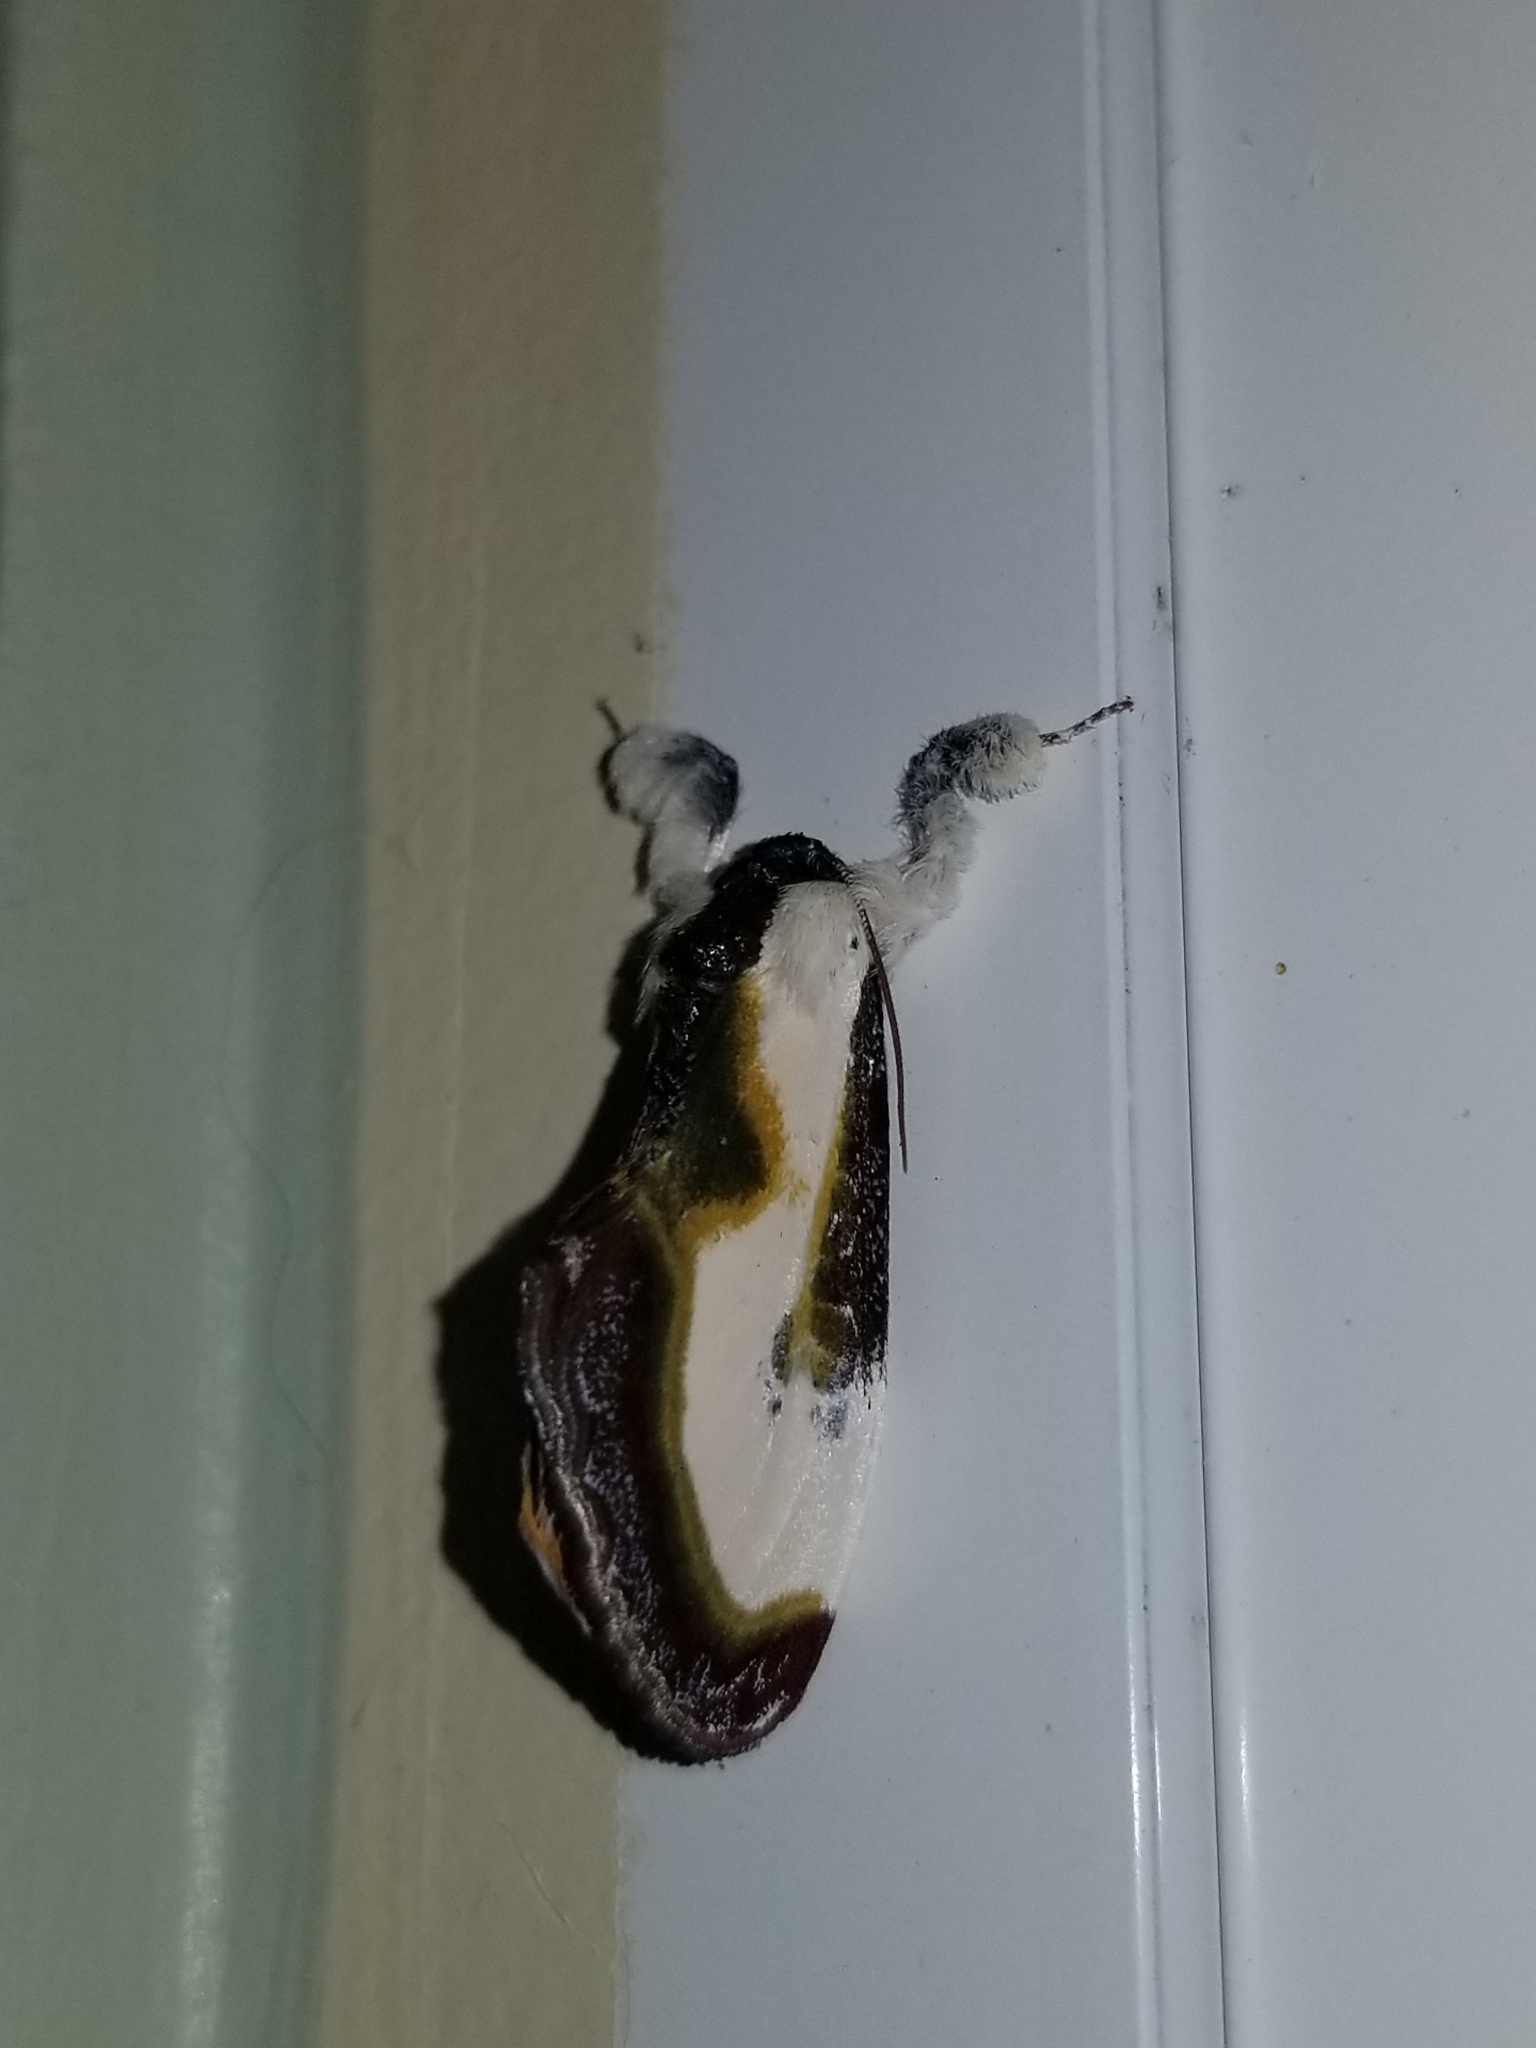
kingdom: Animalia
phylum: Arthropoda
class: Insecta
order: Lepidoptera
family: Noctuidae
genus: Eudryas
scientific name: Eudryas grata
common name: Beautiful wood-nymph
